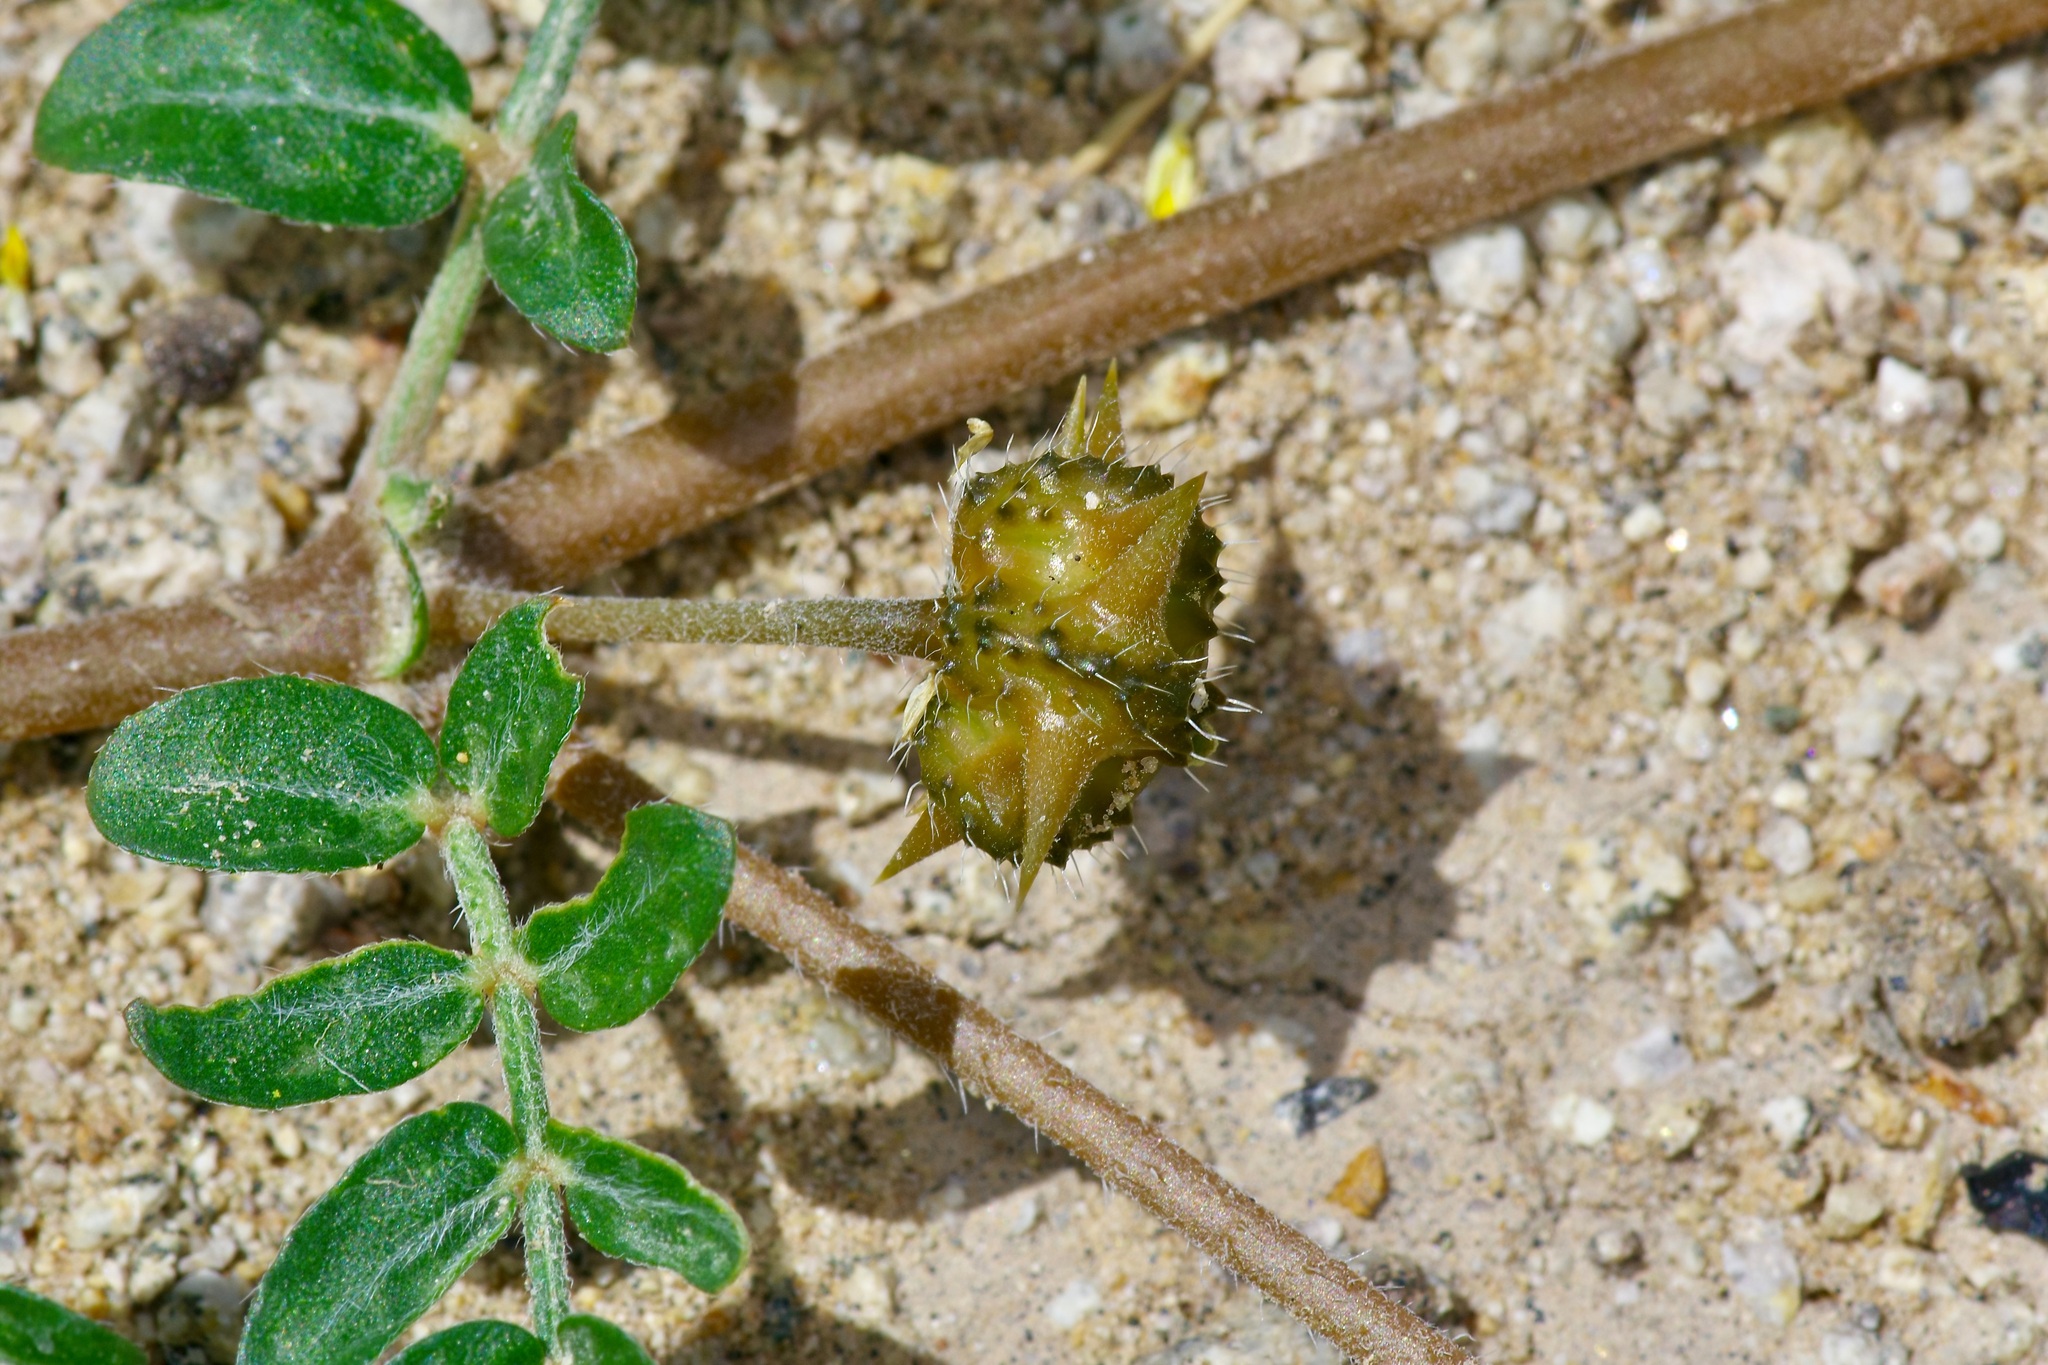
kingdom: Plantae
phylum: Tracheophyta
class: Magnoliopsida
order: Zygophyllales
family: Zygophyllaceae
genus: Tribulus
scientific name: Tribulus terrestris
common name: Puncturevine
